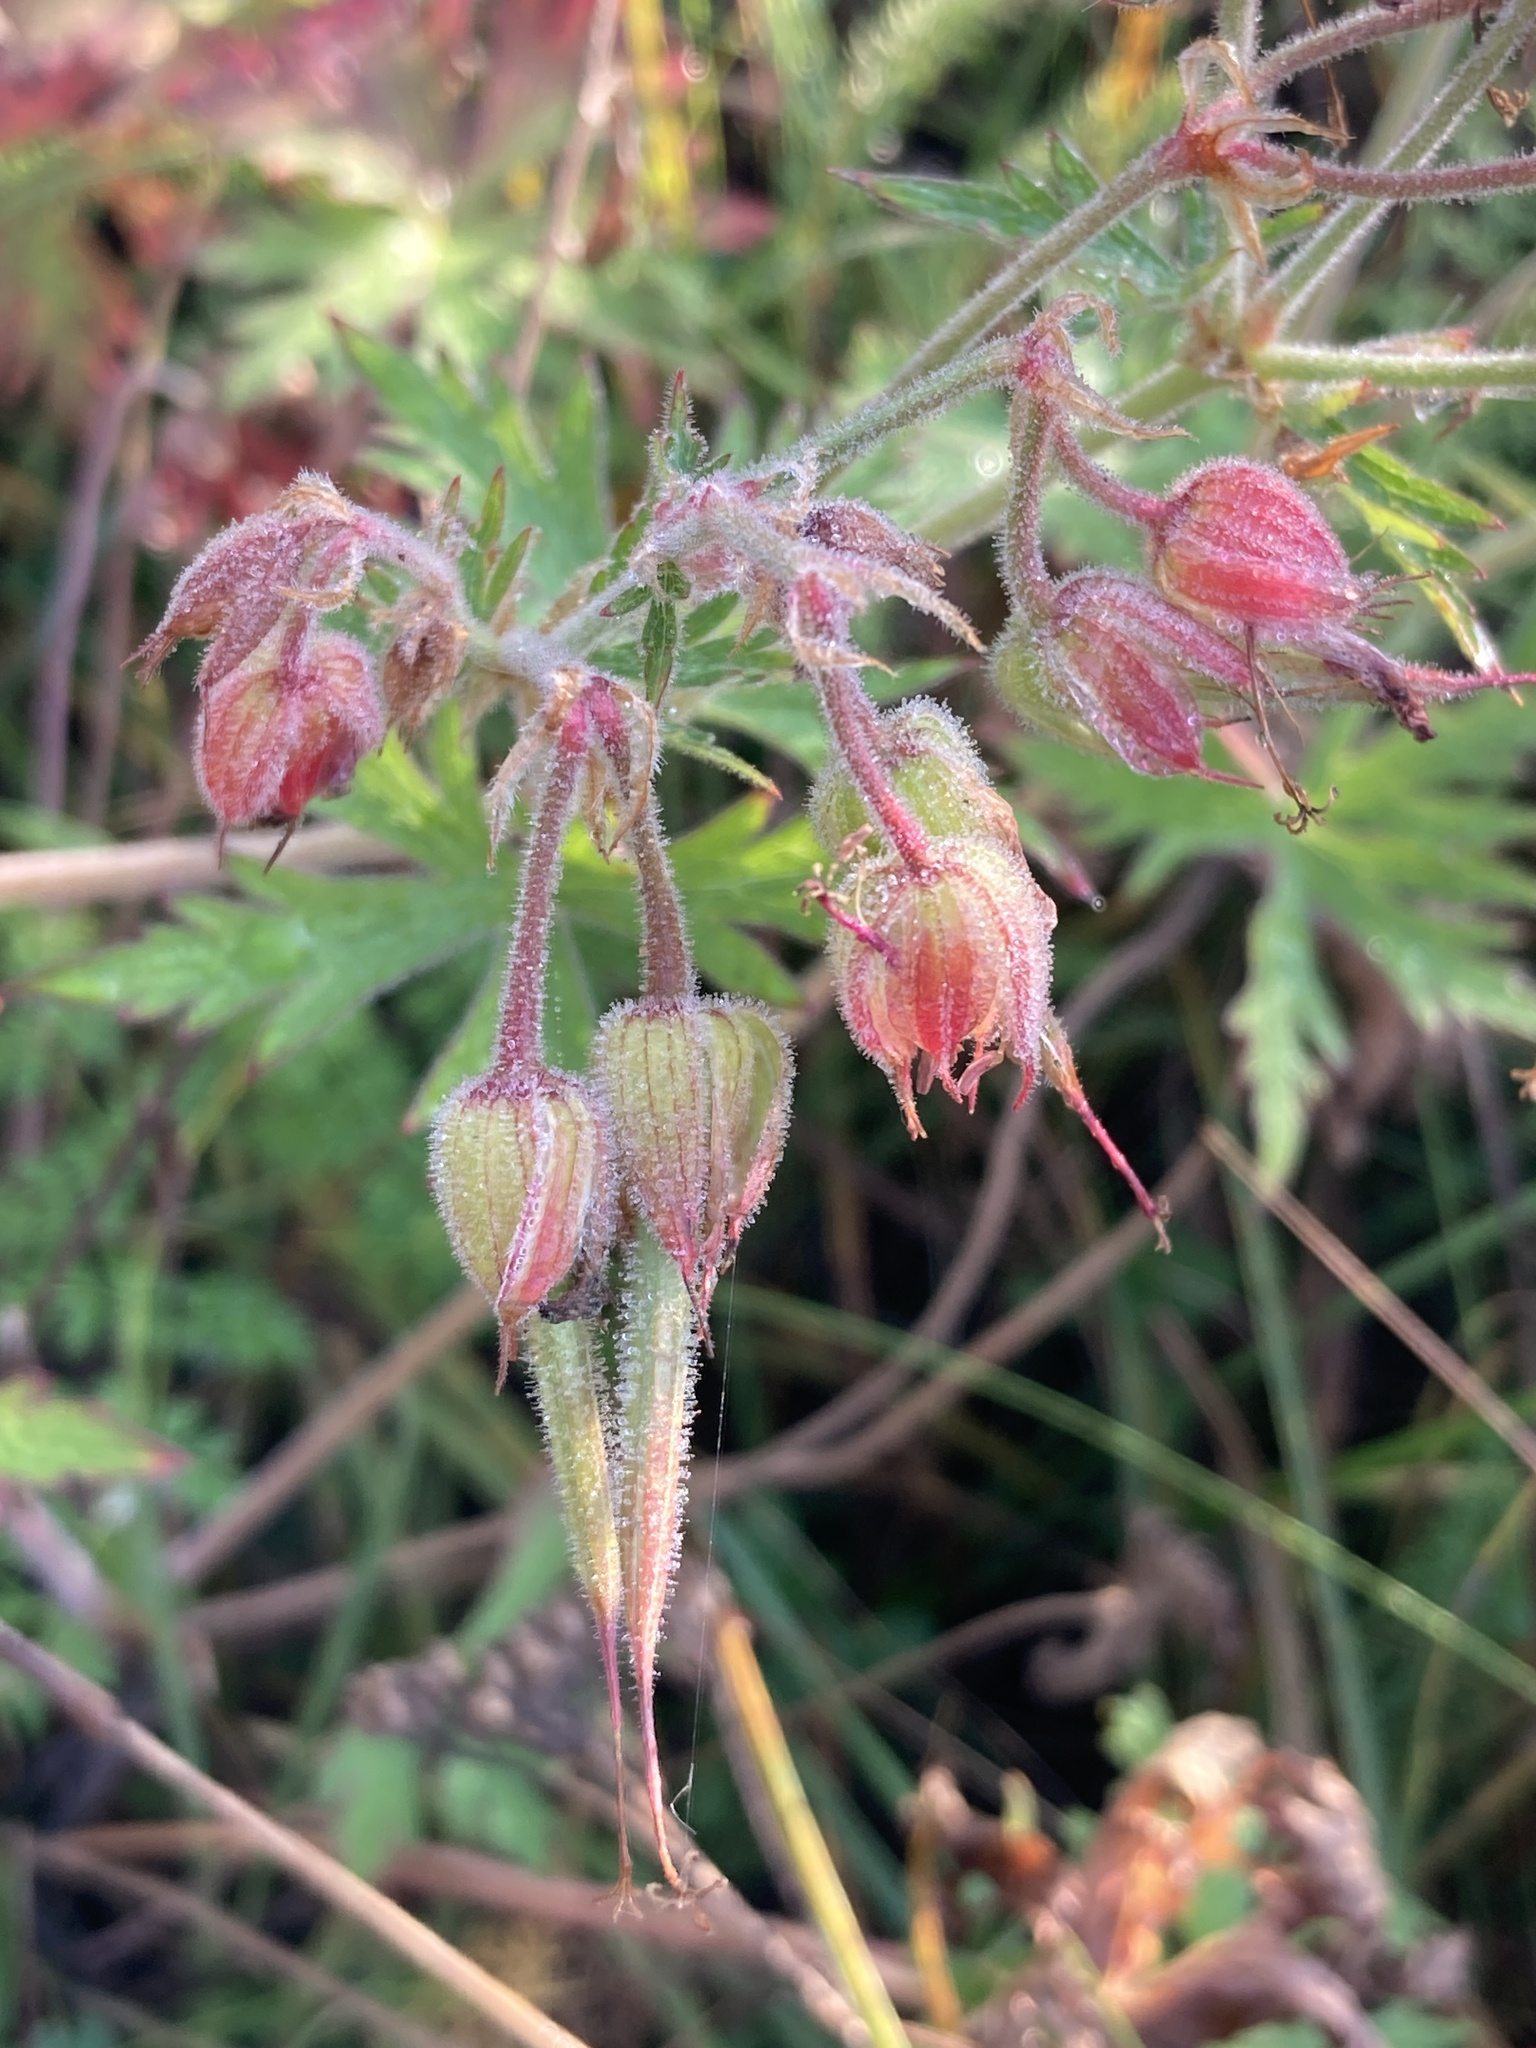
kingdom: Plantae
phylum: Tracheophyta
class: Magnoliopsida
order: Geraniales
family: Geraniaceae
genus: Geranium
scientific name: Geranium pratense
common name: Meadow crane's-bill
